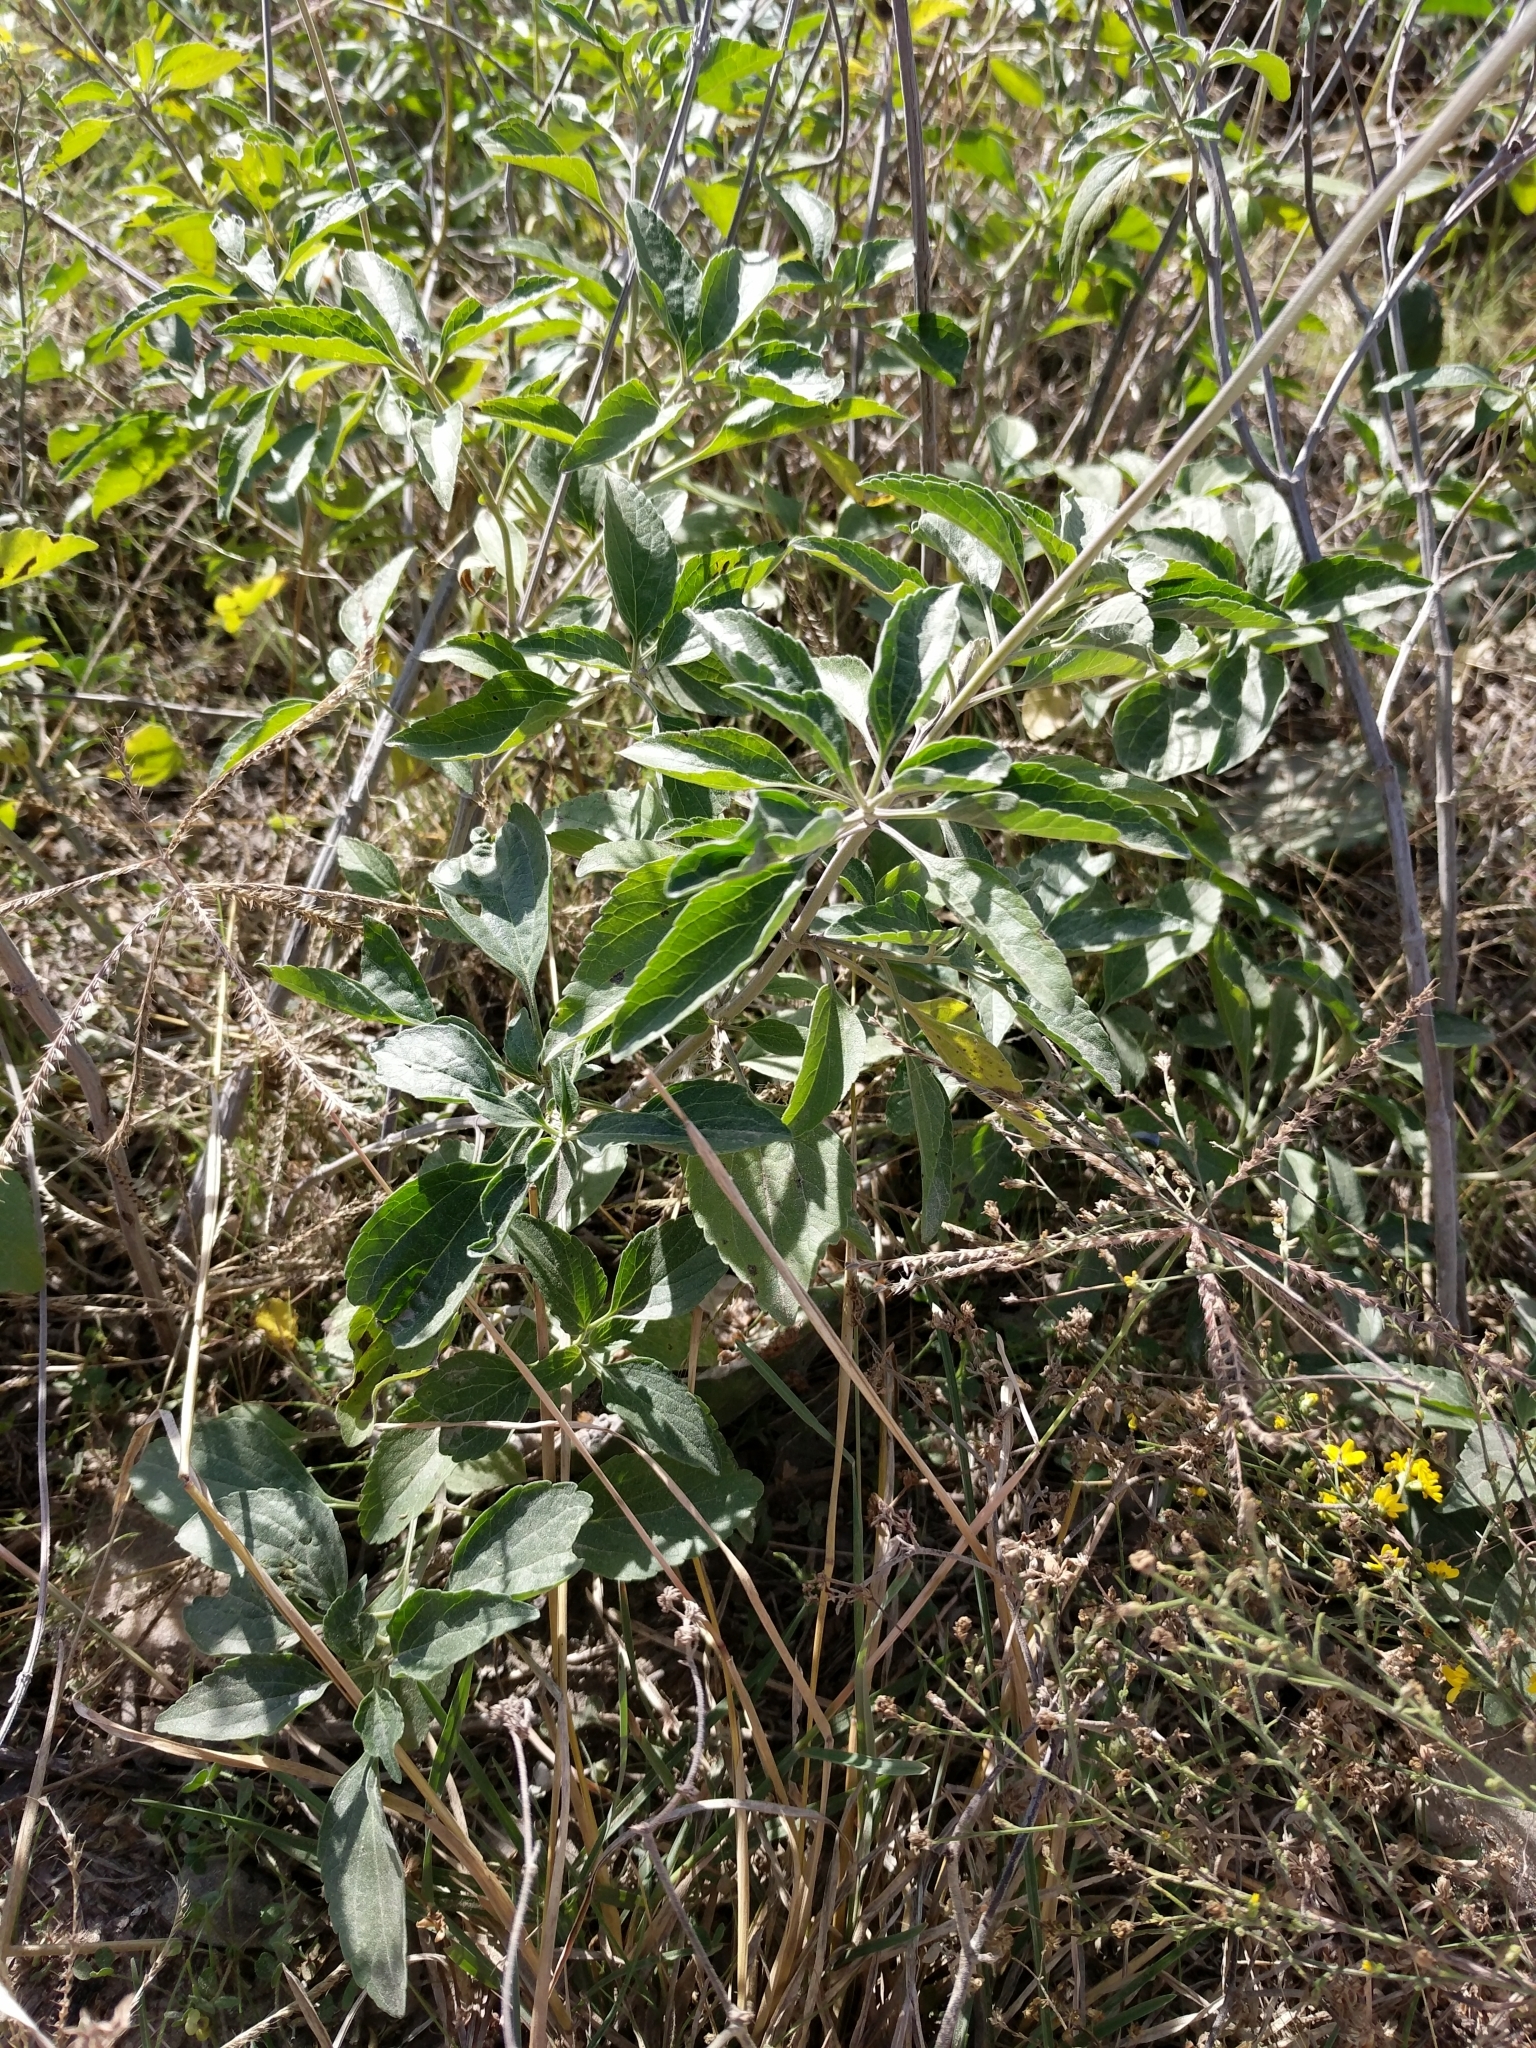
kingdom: Plantae
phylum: Tracheophyta
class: Magnoliopsida
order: Lamiales
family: Lamiaceae
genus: Salvia
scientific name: Salvia farinacea
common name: Mealy sage
